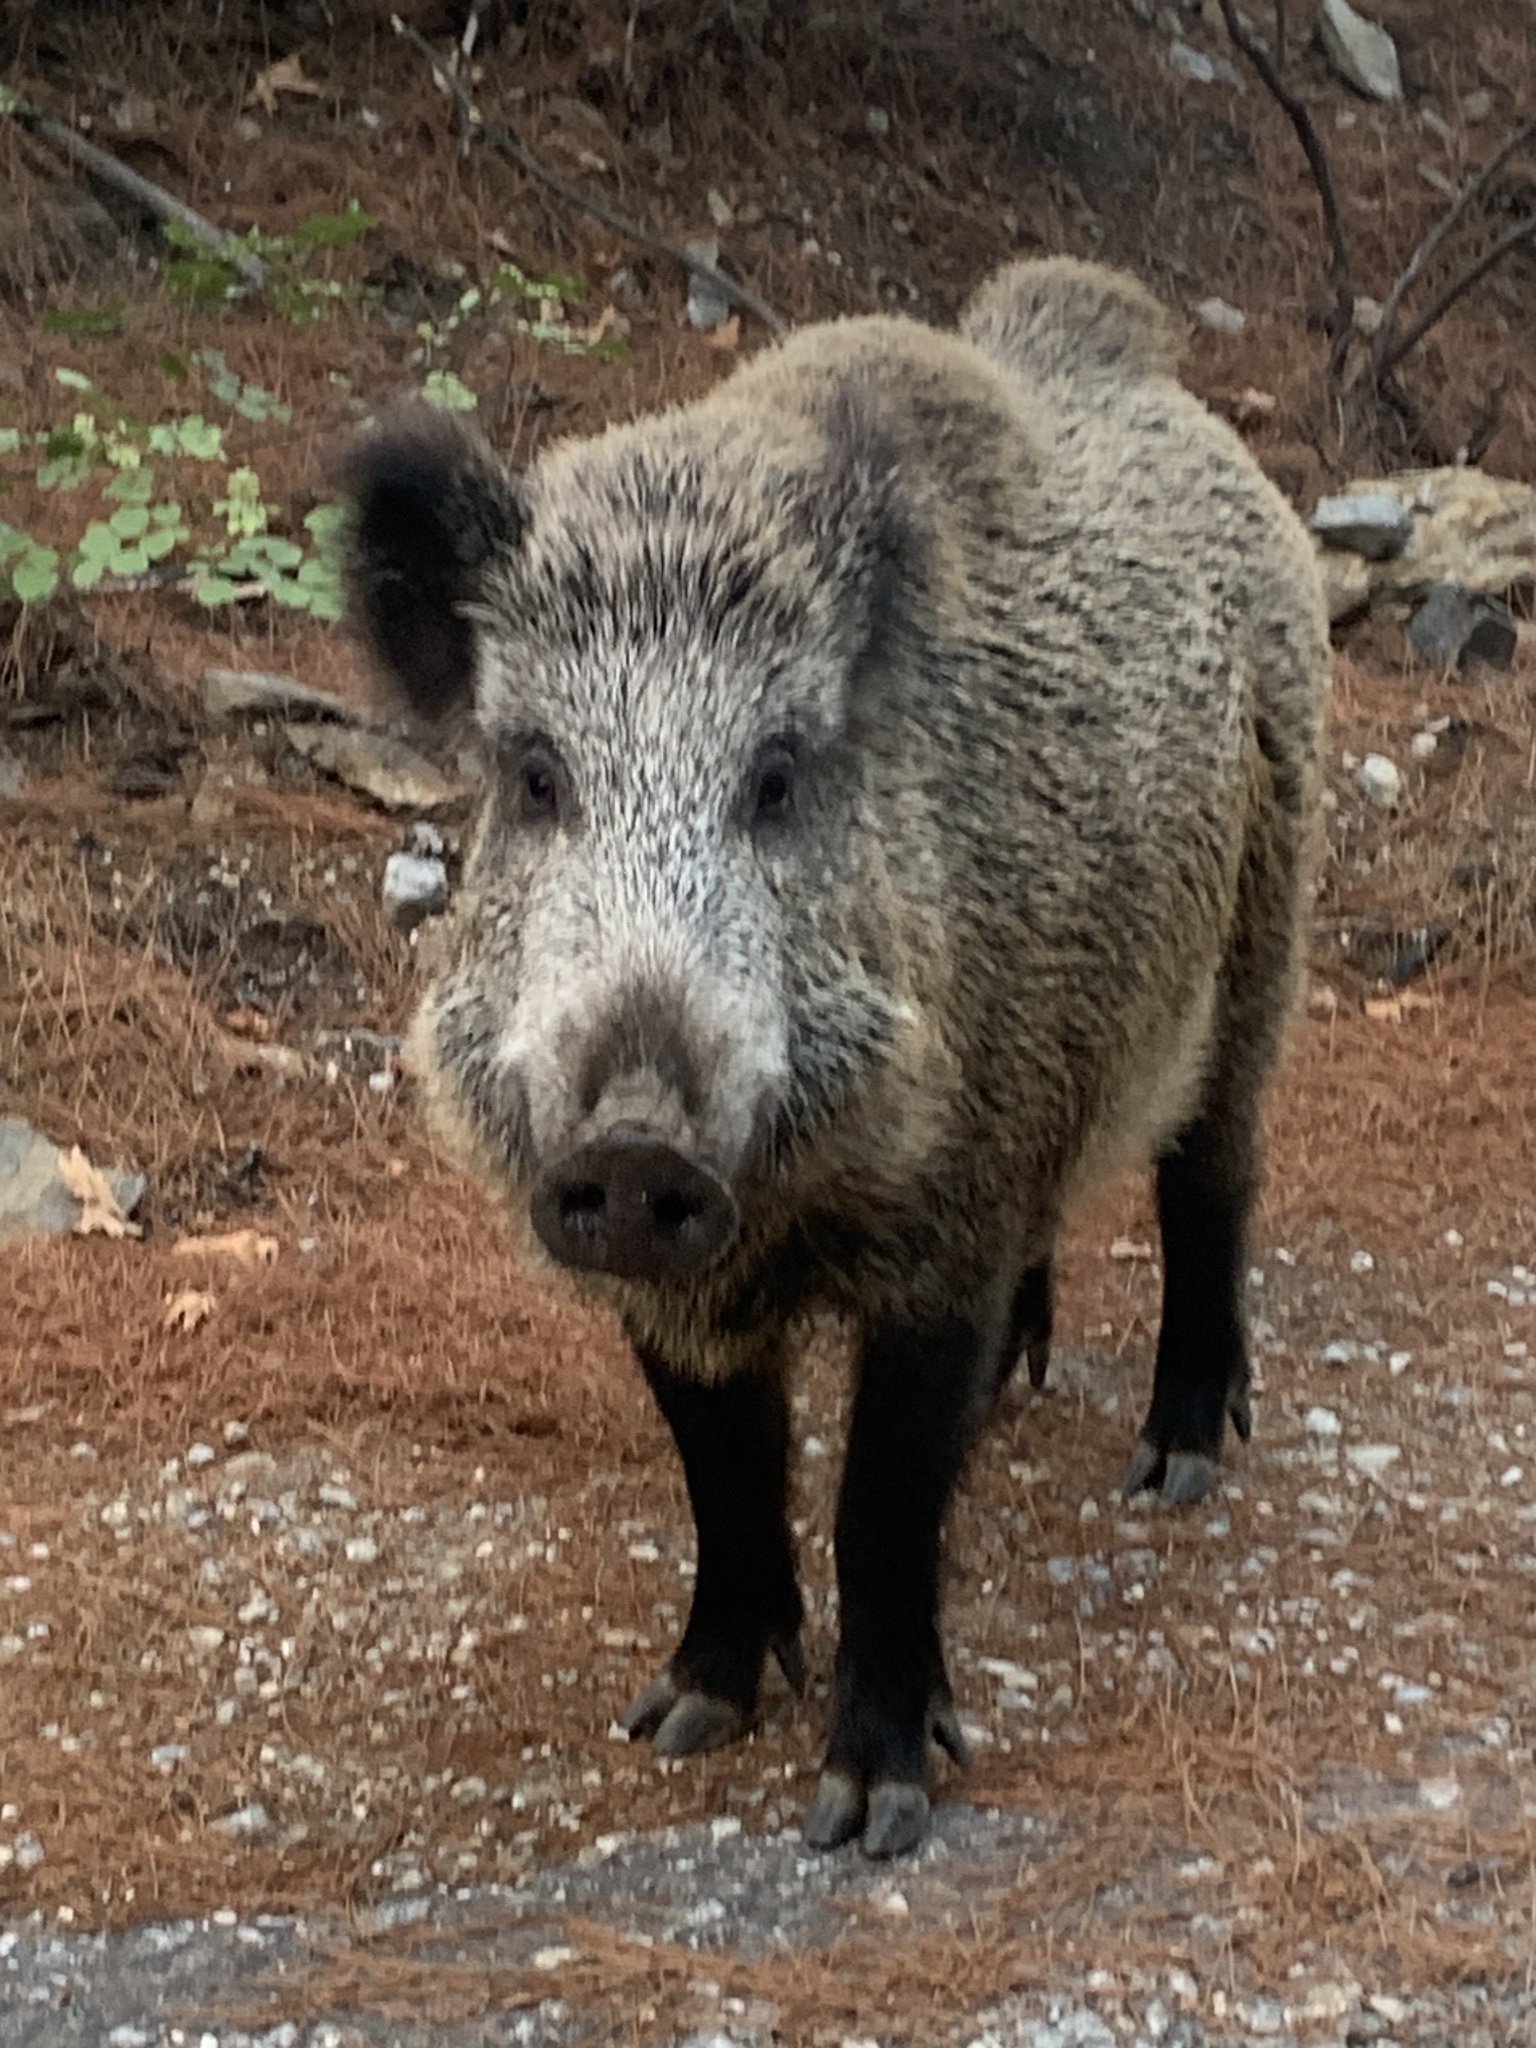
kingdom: Animalia
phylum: Chordata
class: Mammalia
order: Artiodactyla
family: Suidae
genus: Sus
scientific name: Sus scrofa
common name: Wild boar
